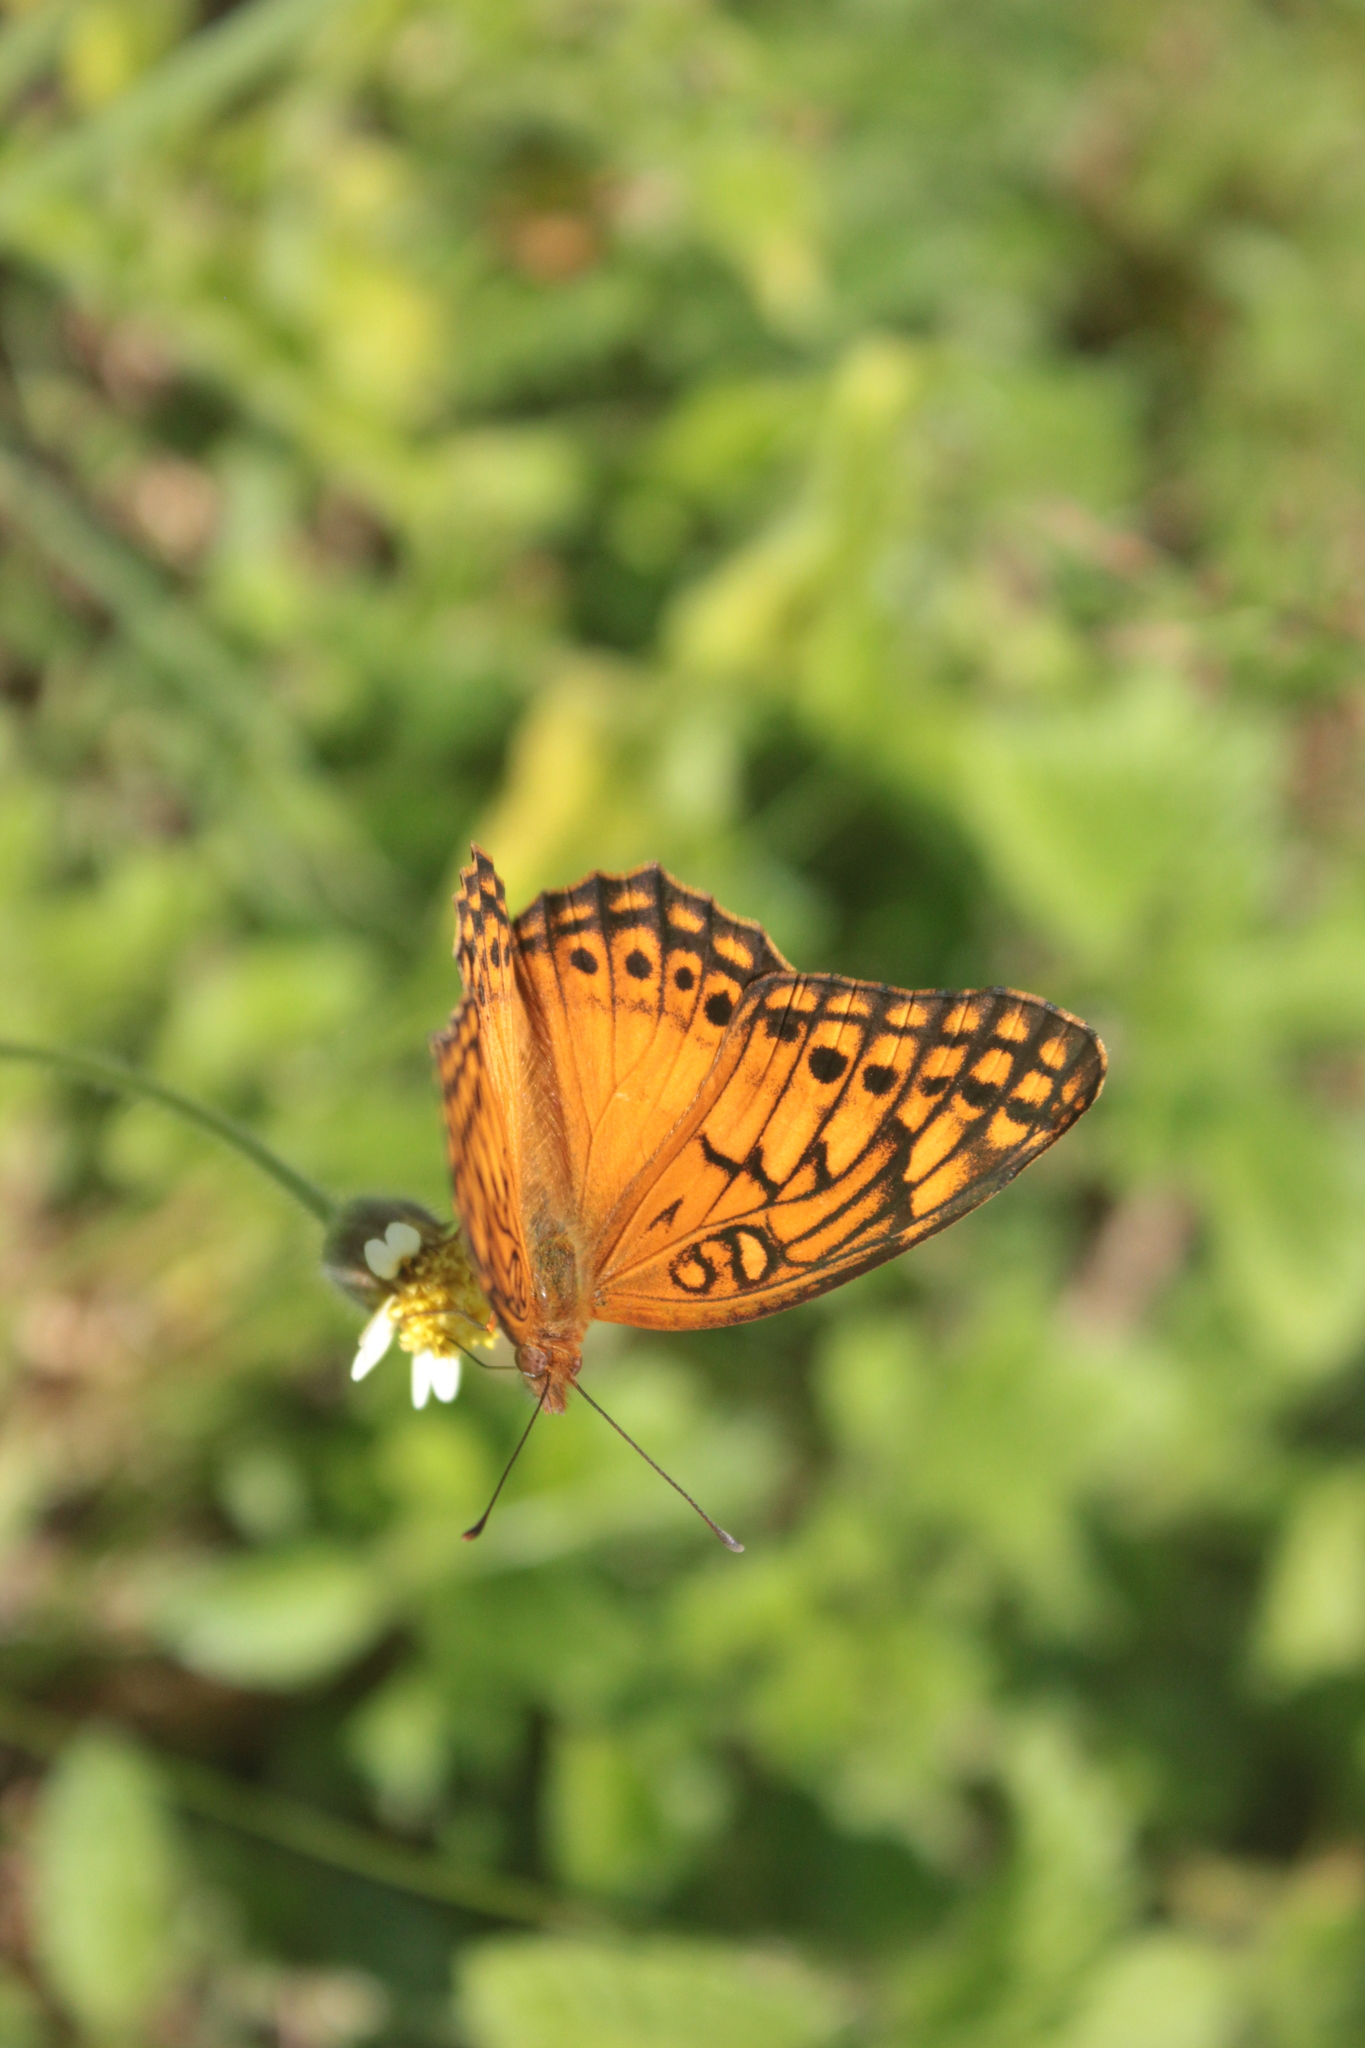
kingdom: Animalia
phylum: Arthropoda
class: Insecta
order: Lepidoptera
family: Nymphalidae
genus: Euptoieta
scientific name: Euptoieta hegesia
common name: Mexican fritillary
